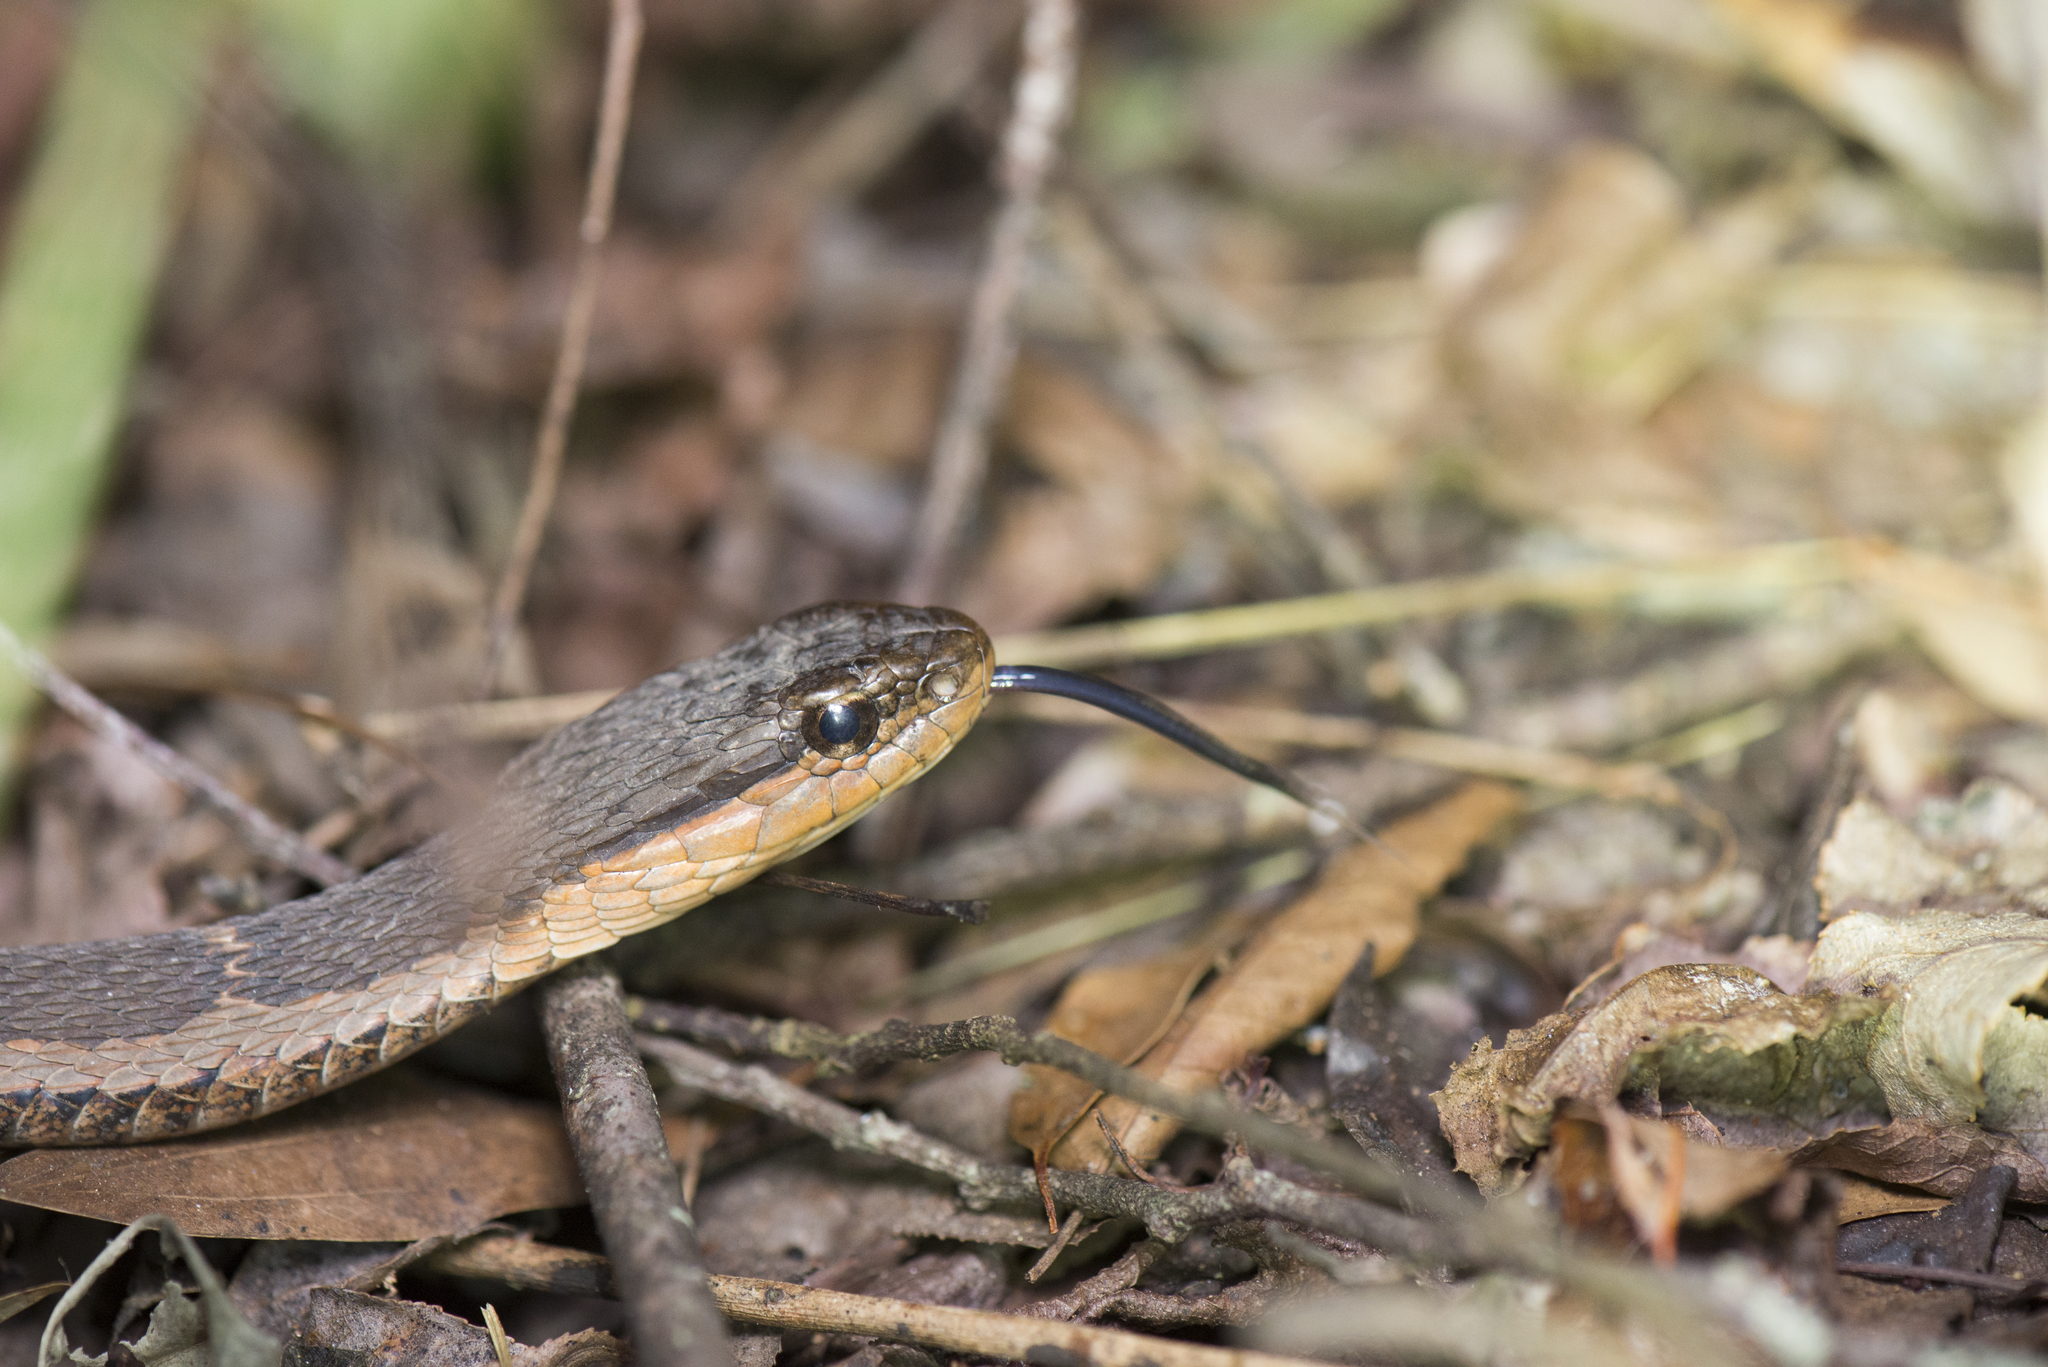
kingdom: Animalia
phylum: Chordata
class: Squamata
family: Colubridae
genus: Pseudagkistrodon
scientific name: Pseudagkistrodon rudis
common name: False habu
